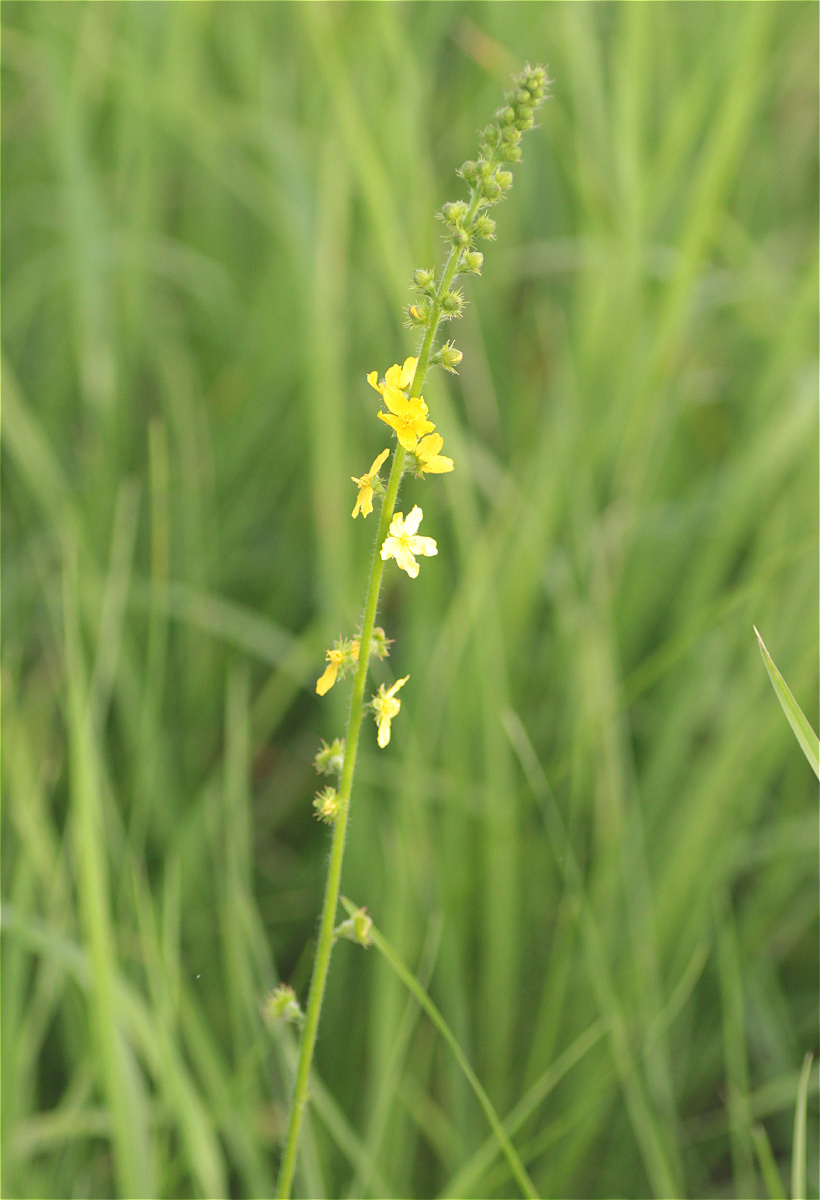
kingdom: Plantae
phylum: Tracheophyta
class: Magnoliopsida
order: Rosales
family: Rosaceae
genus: Agrimonia
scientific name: Agrimonia eupatoria
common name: Agrimony
